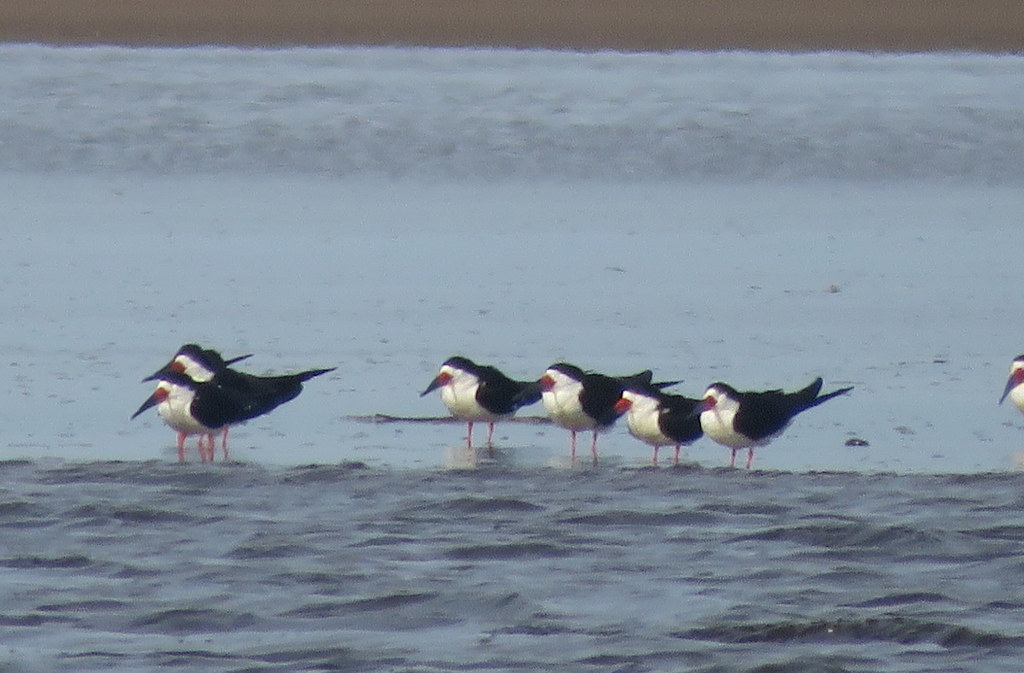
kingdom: Animalia
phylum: Chordata
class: Aves
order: Charadriiformes
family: Laridae
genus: Rynchops
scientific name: Rynchops niger
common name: Black skimmer
